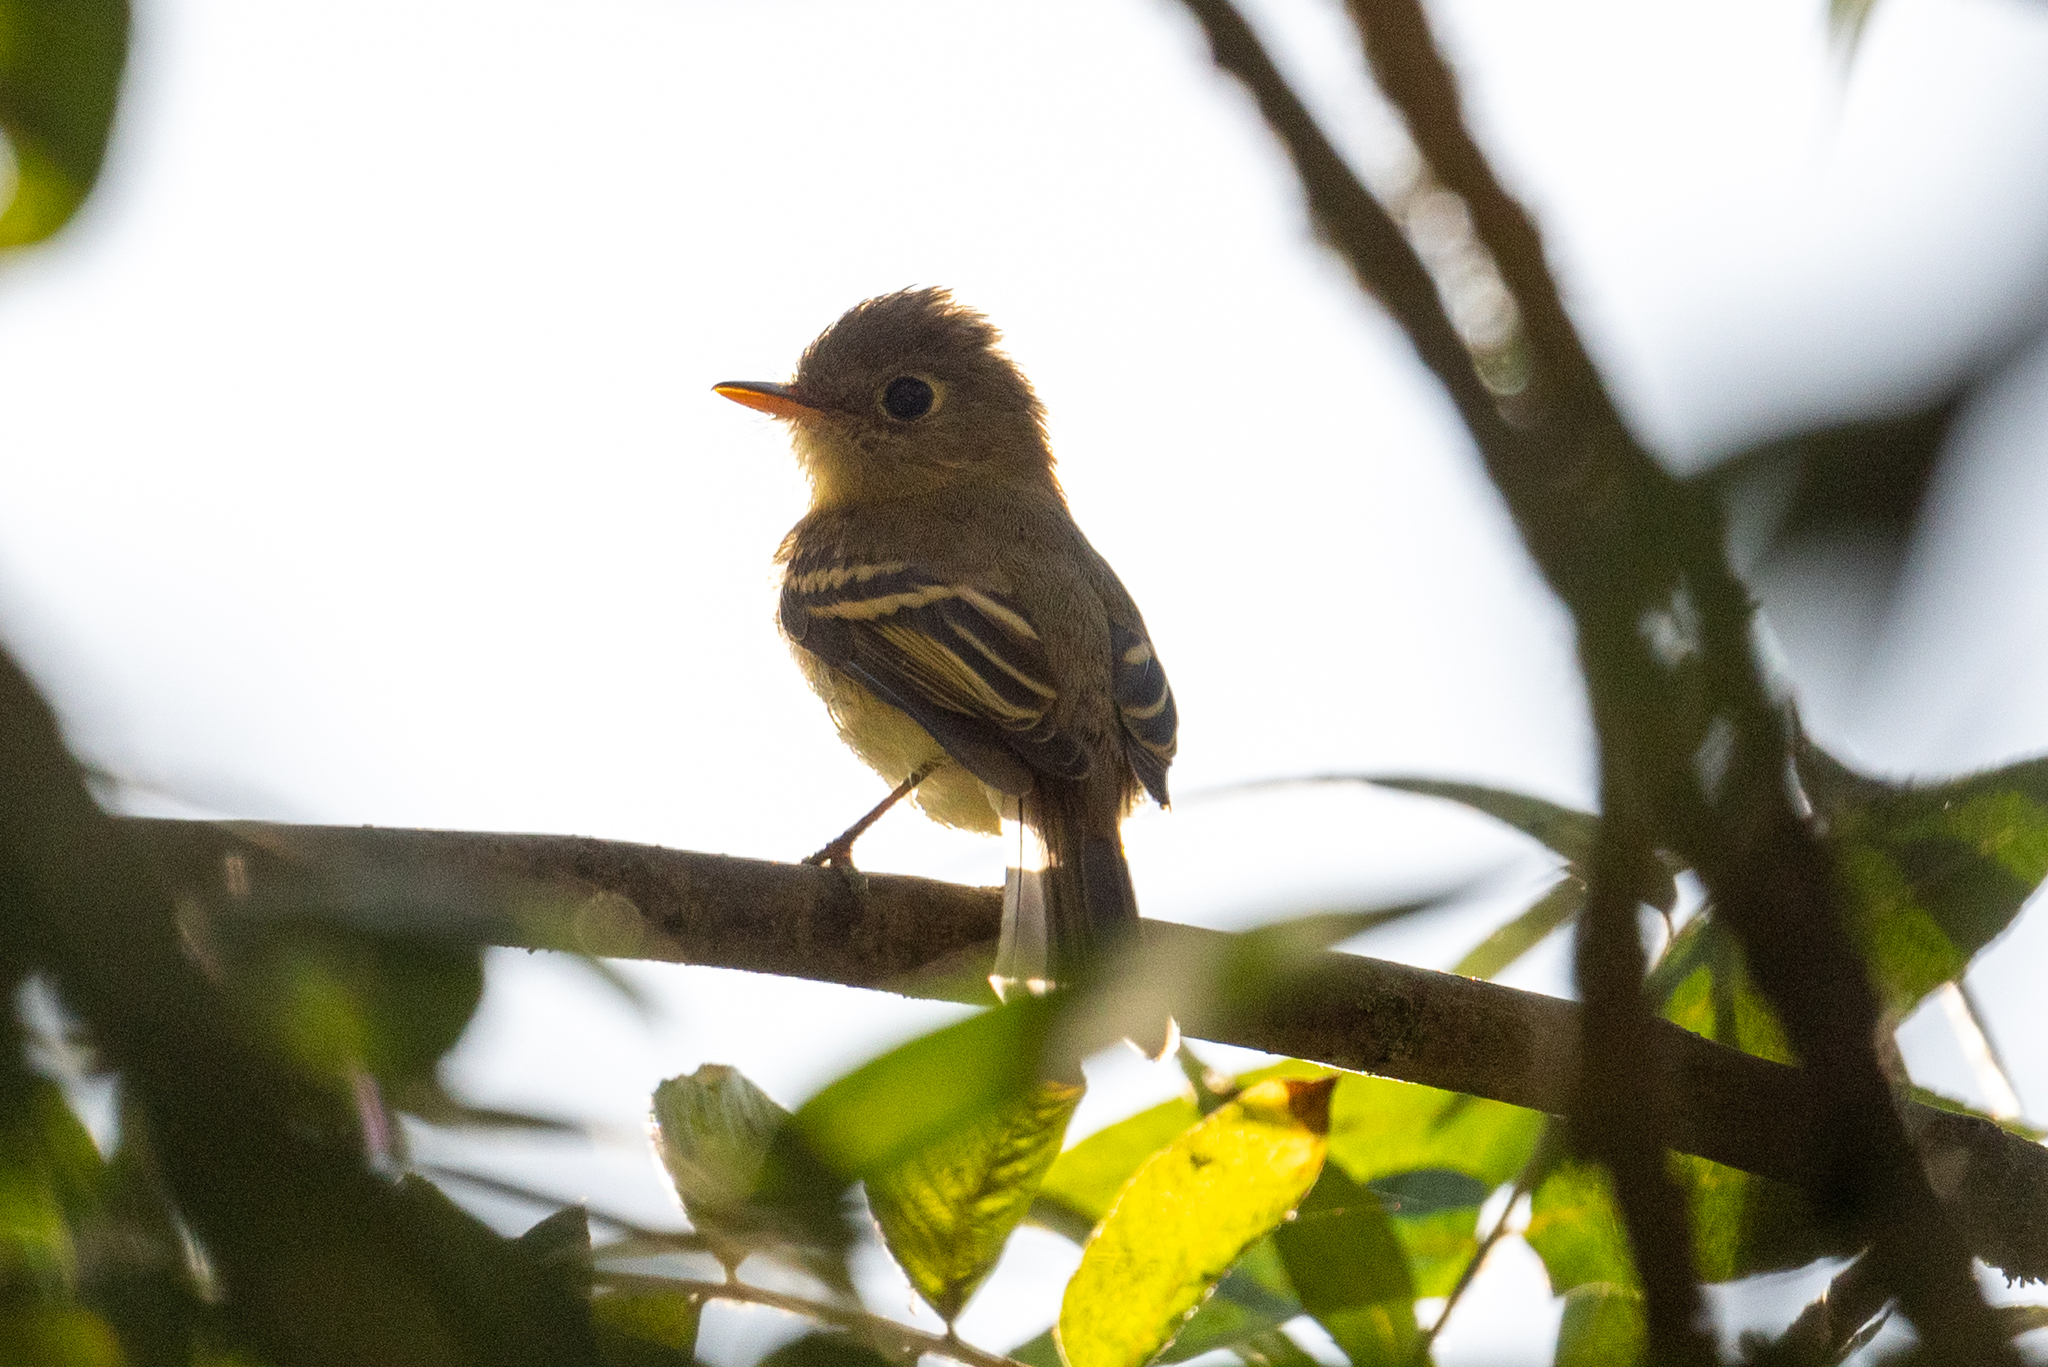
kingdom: Animalia
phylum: Chordata
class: Aves
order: Passeriformes
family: Tyrannidae
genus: Empidonax
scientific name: Empidonax difficilis
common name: Pacific-slope flycatcher
